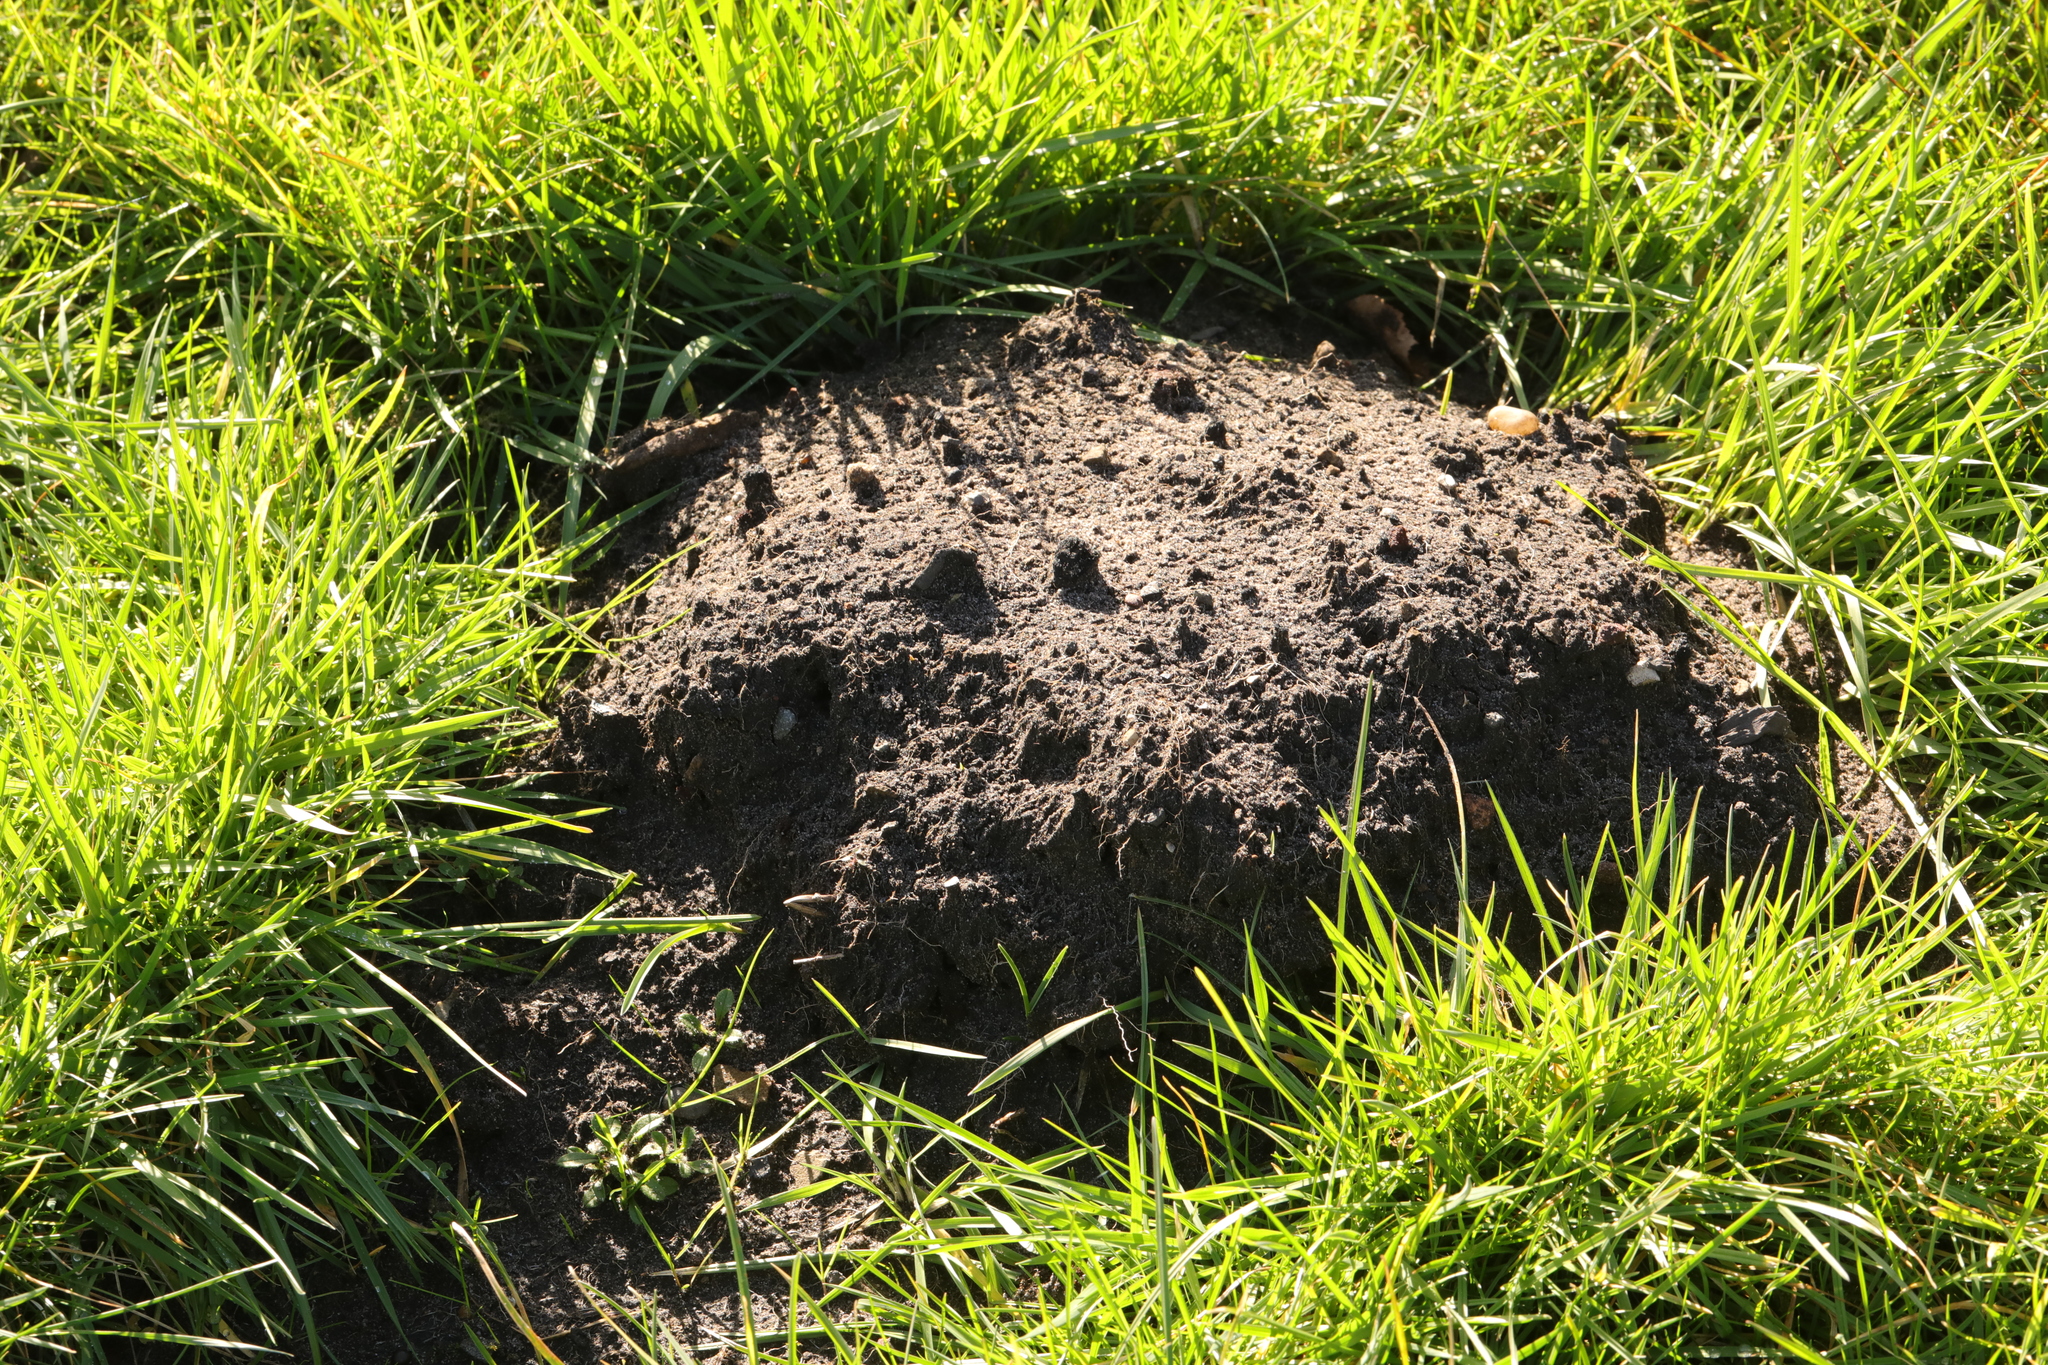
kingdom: Animalia
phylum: Chordata
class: Mammalia
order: Soricomorpha
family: Talpidae
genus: Talpa
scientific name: Talpa europaea
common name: European mole
